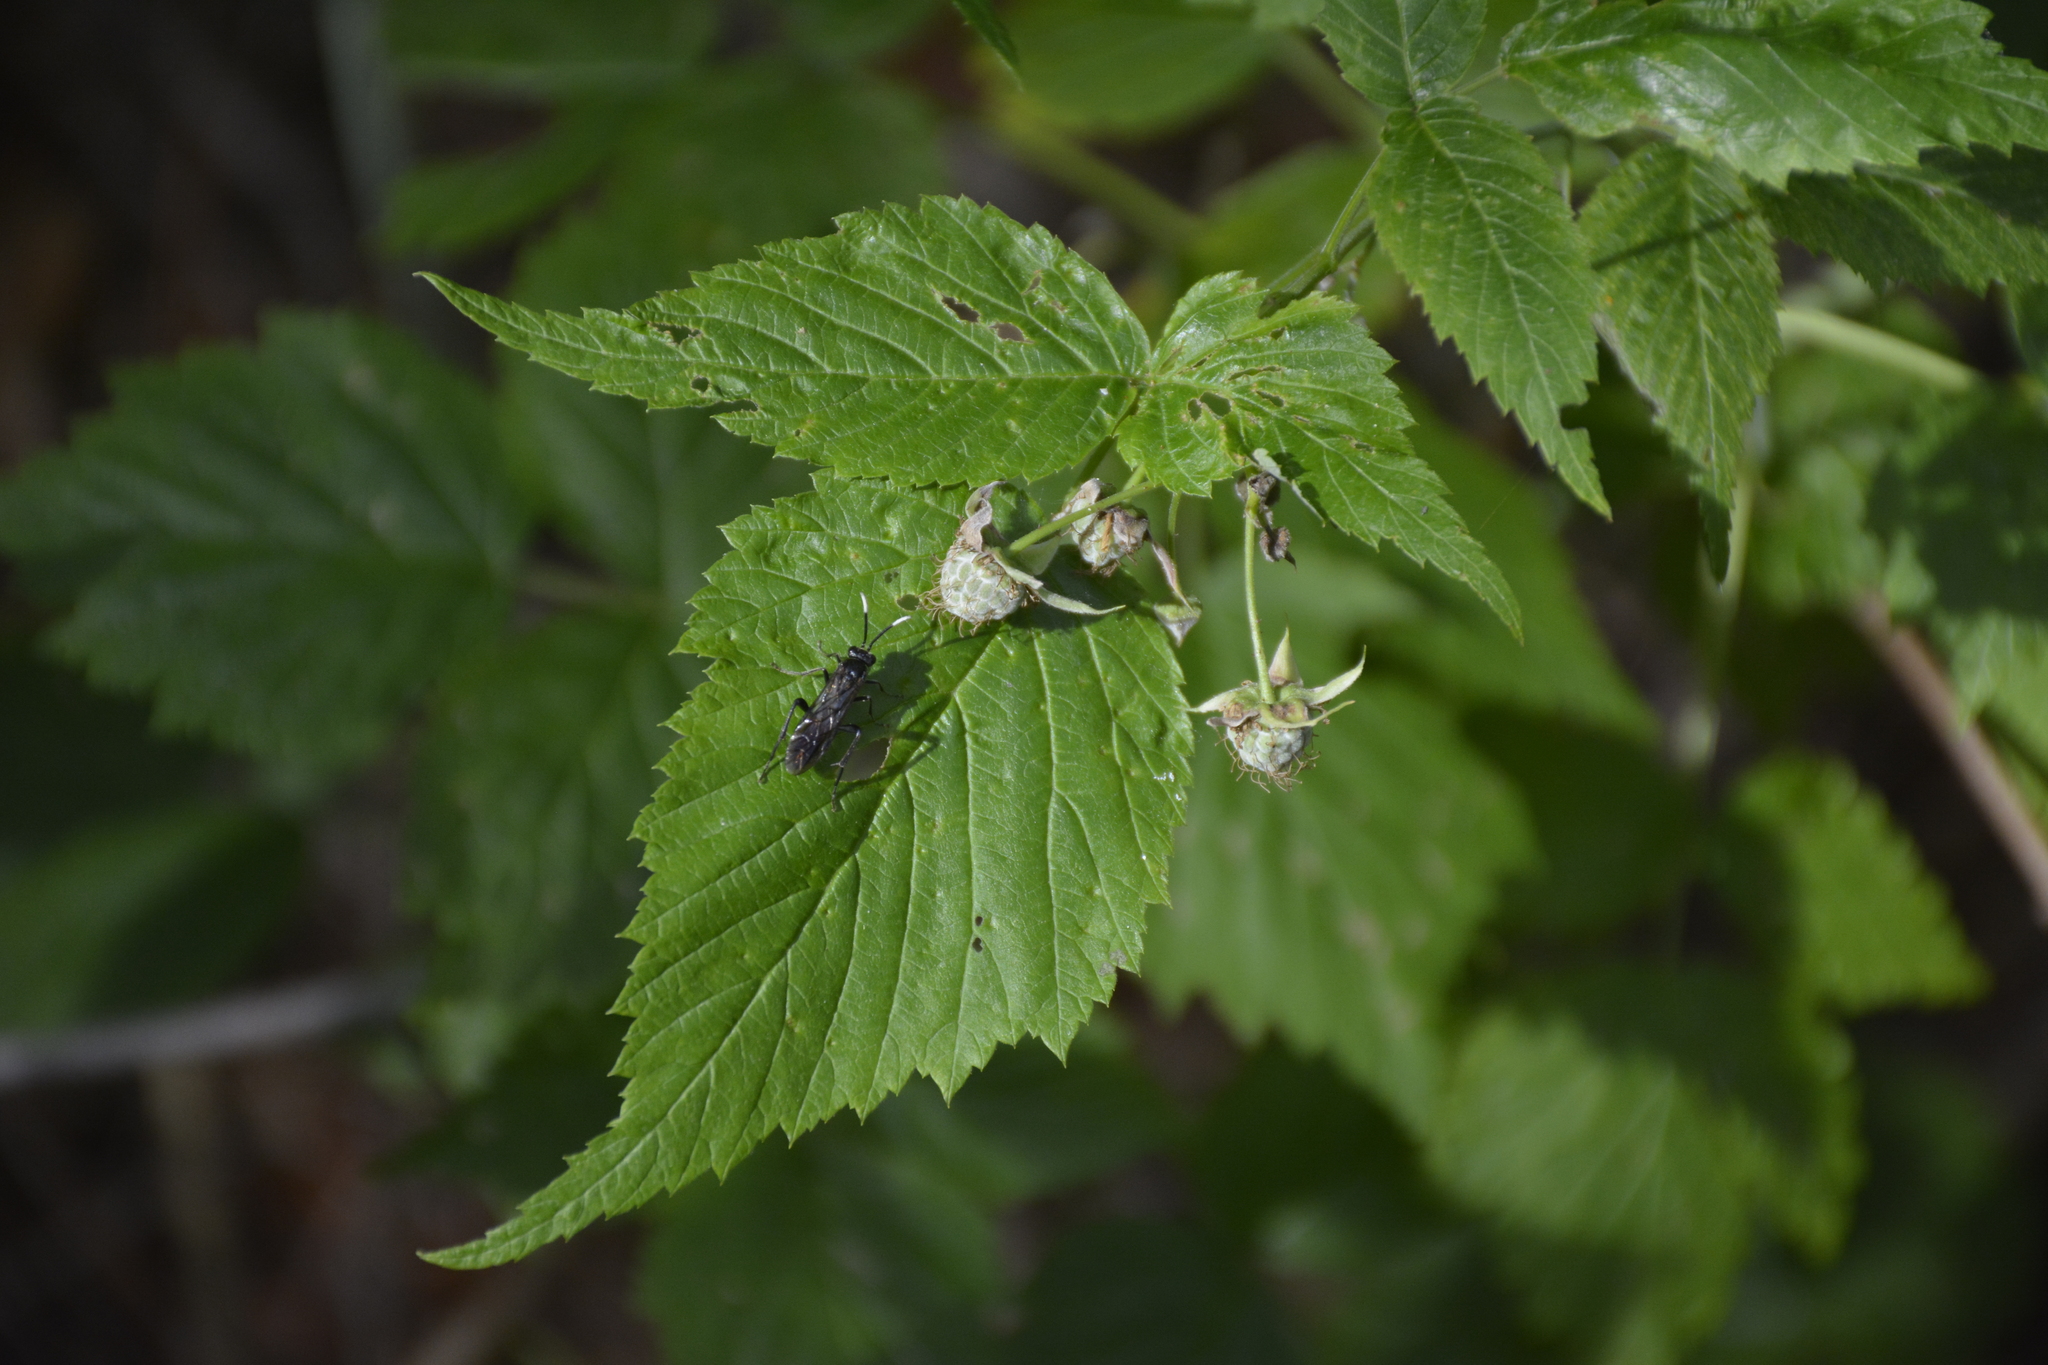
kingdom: Plantae
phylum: Tracheophyta
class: Magnoliopsida
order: Rosales
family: Rosaceae
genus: Rubus
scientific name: Rubus idaeus
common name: Raspberry
